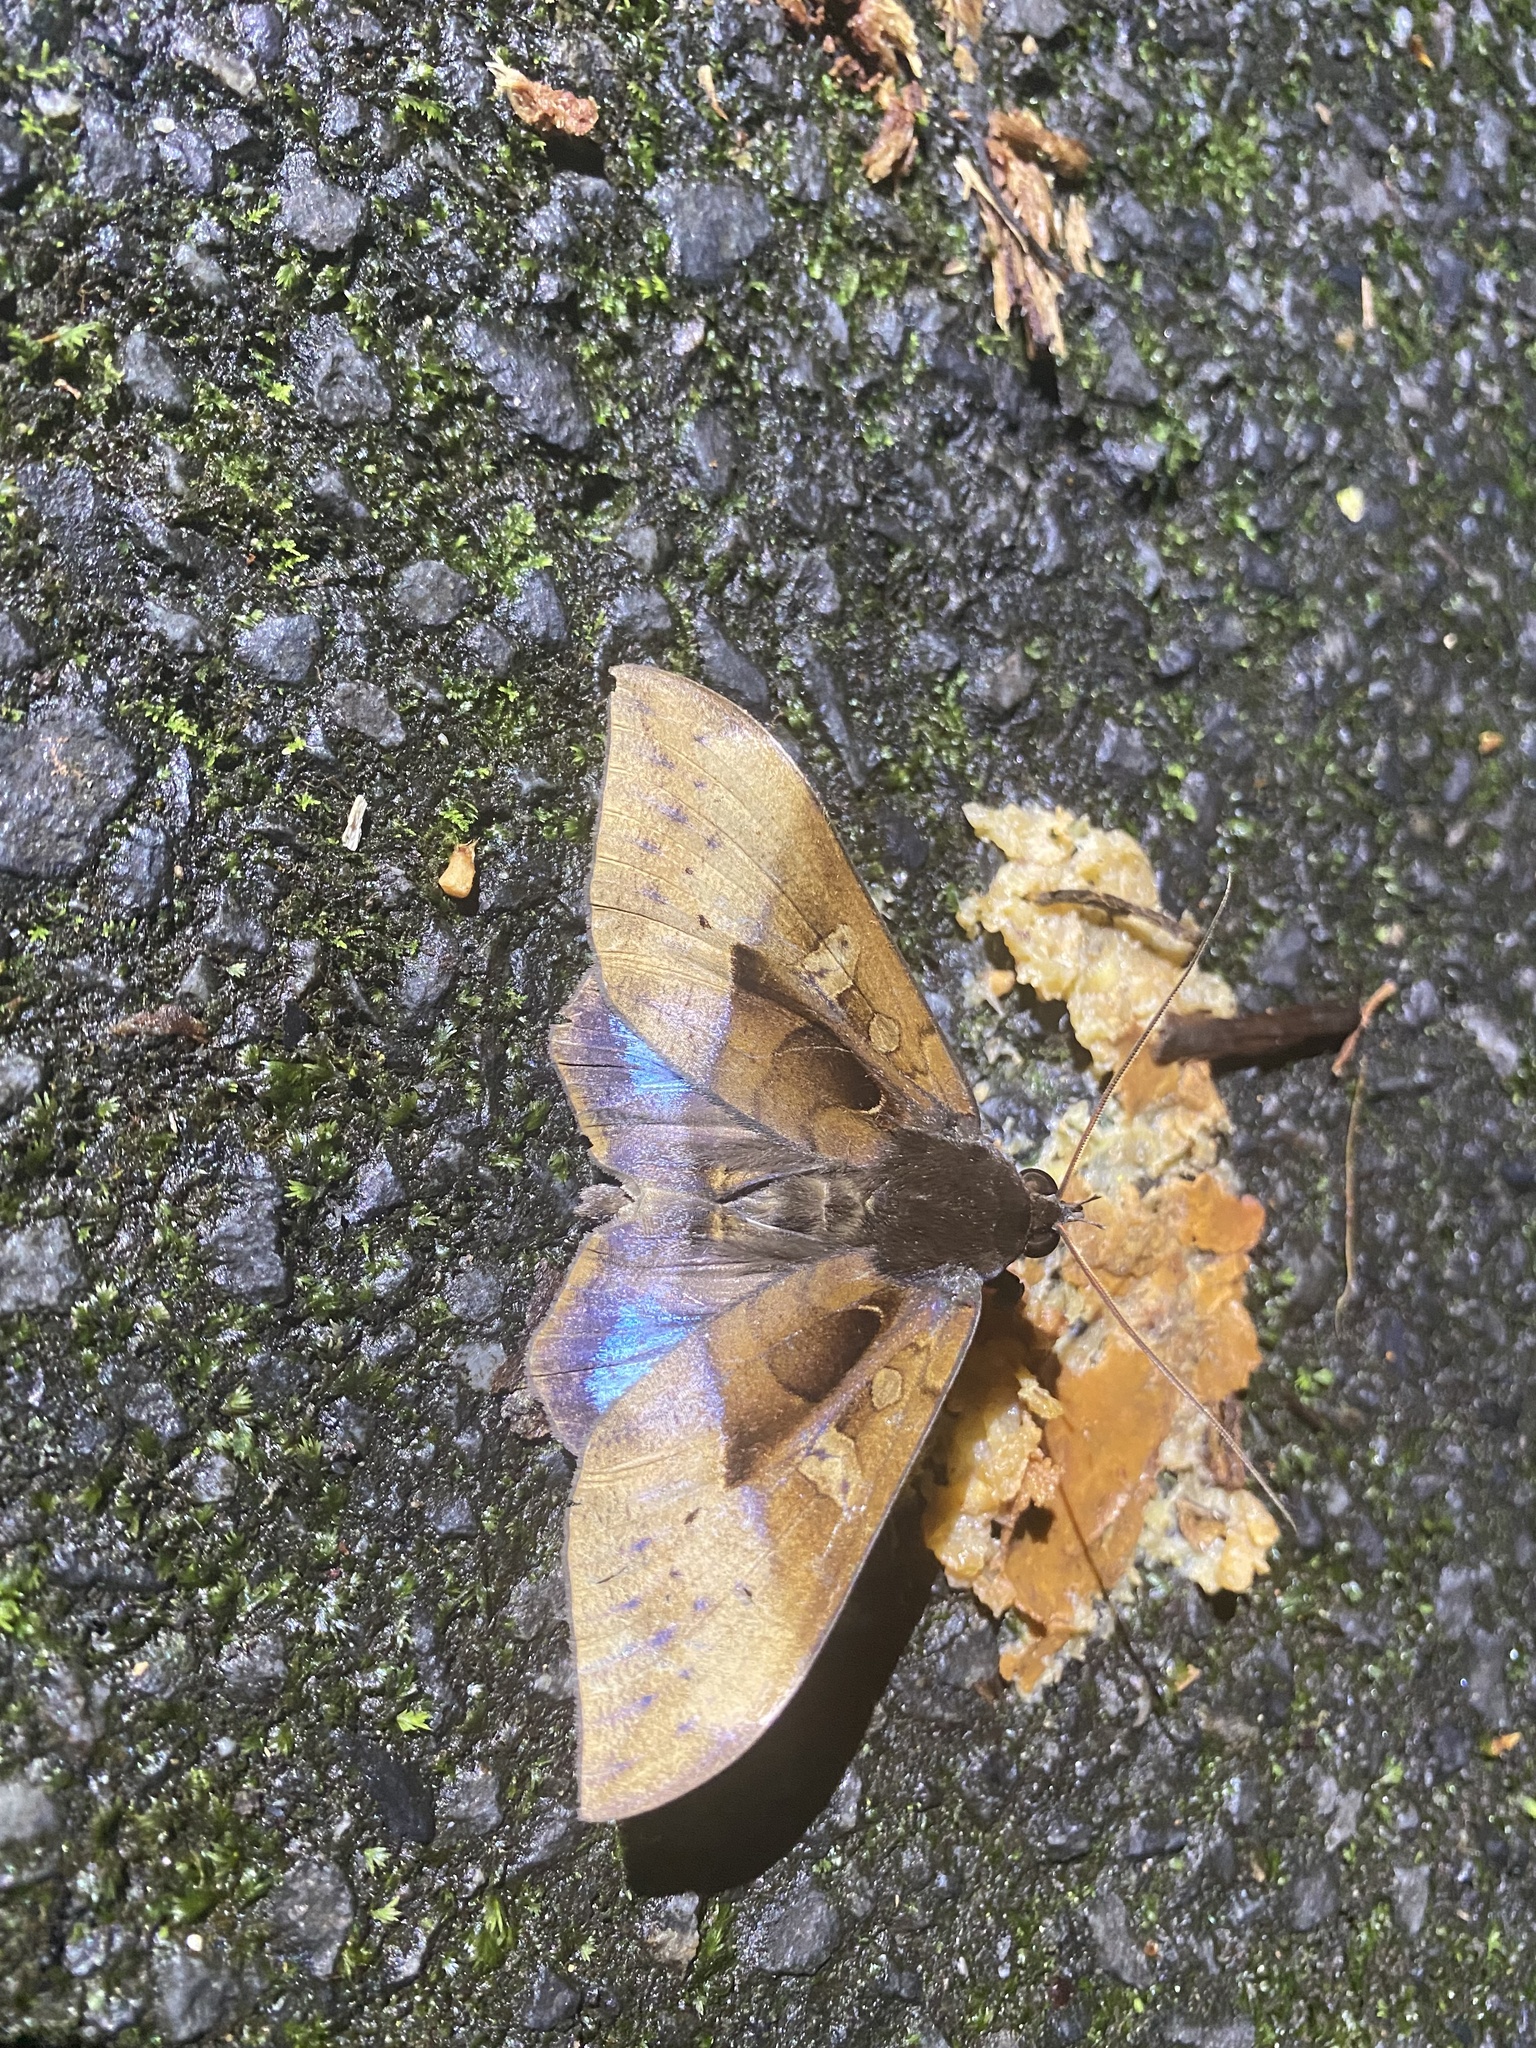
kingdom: Animalia
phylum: Arthropoda
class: Insecta
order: Lepidoptera
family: Erebidae
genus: Ischyja
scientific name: Ischyja manlia
